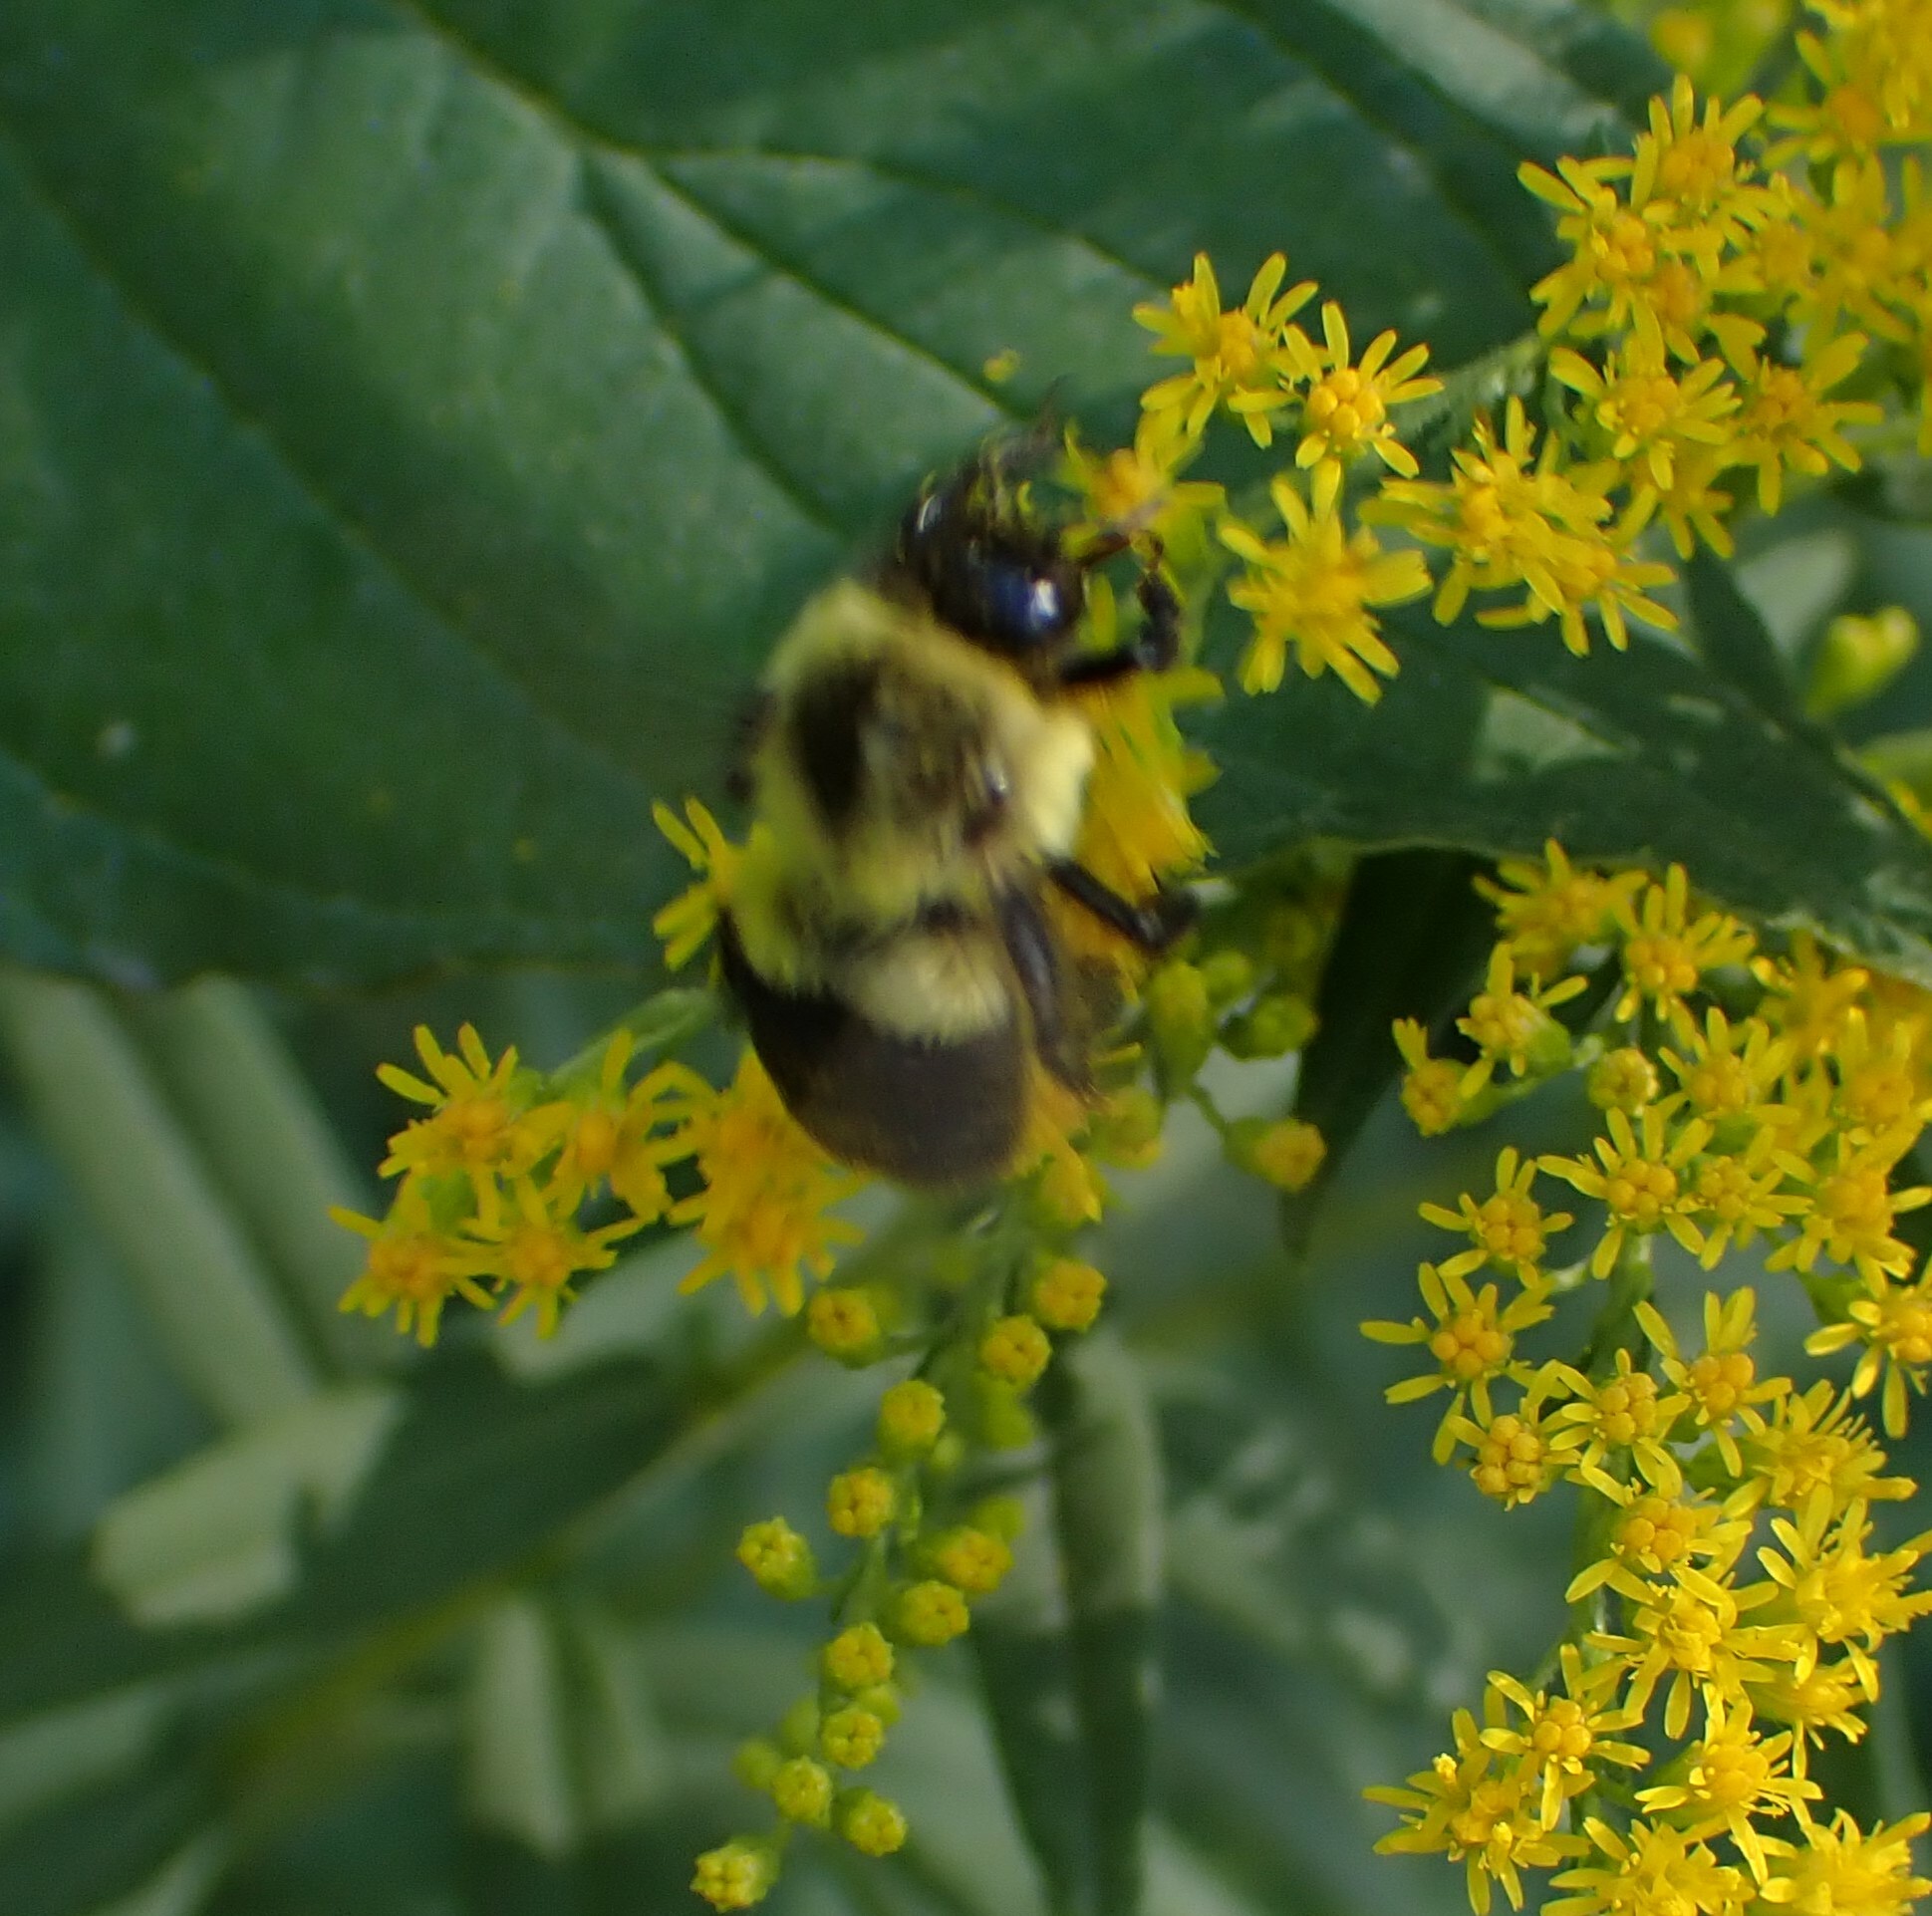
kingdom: Animalia
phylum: Arthropoda
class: Insecta
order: Hymenoptera
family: Apidae
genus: Bombus
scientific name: Bombus impatiens
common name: Common eastern bumble bee
